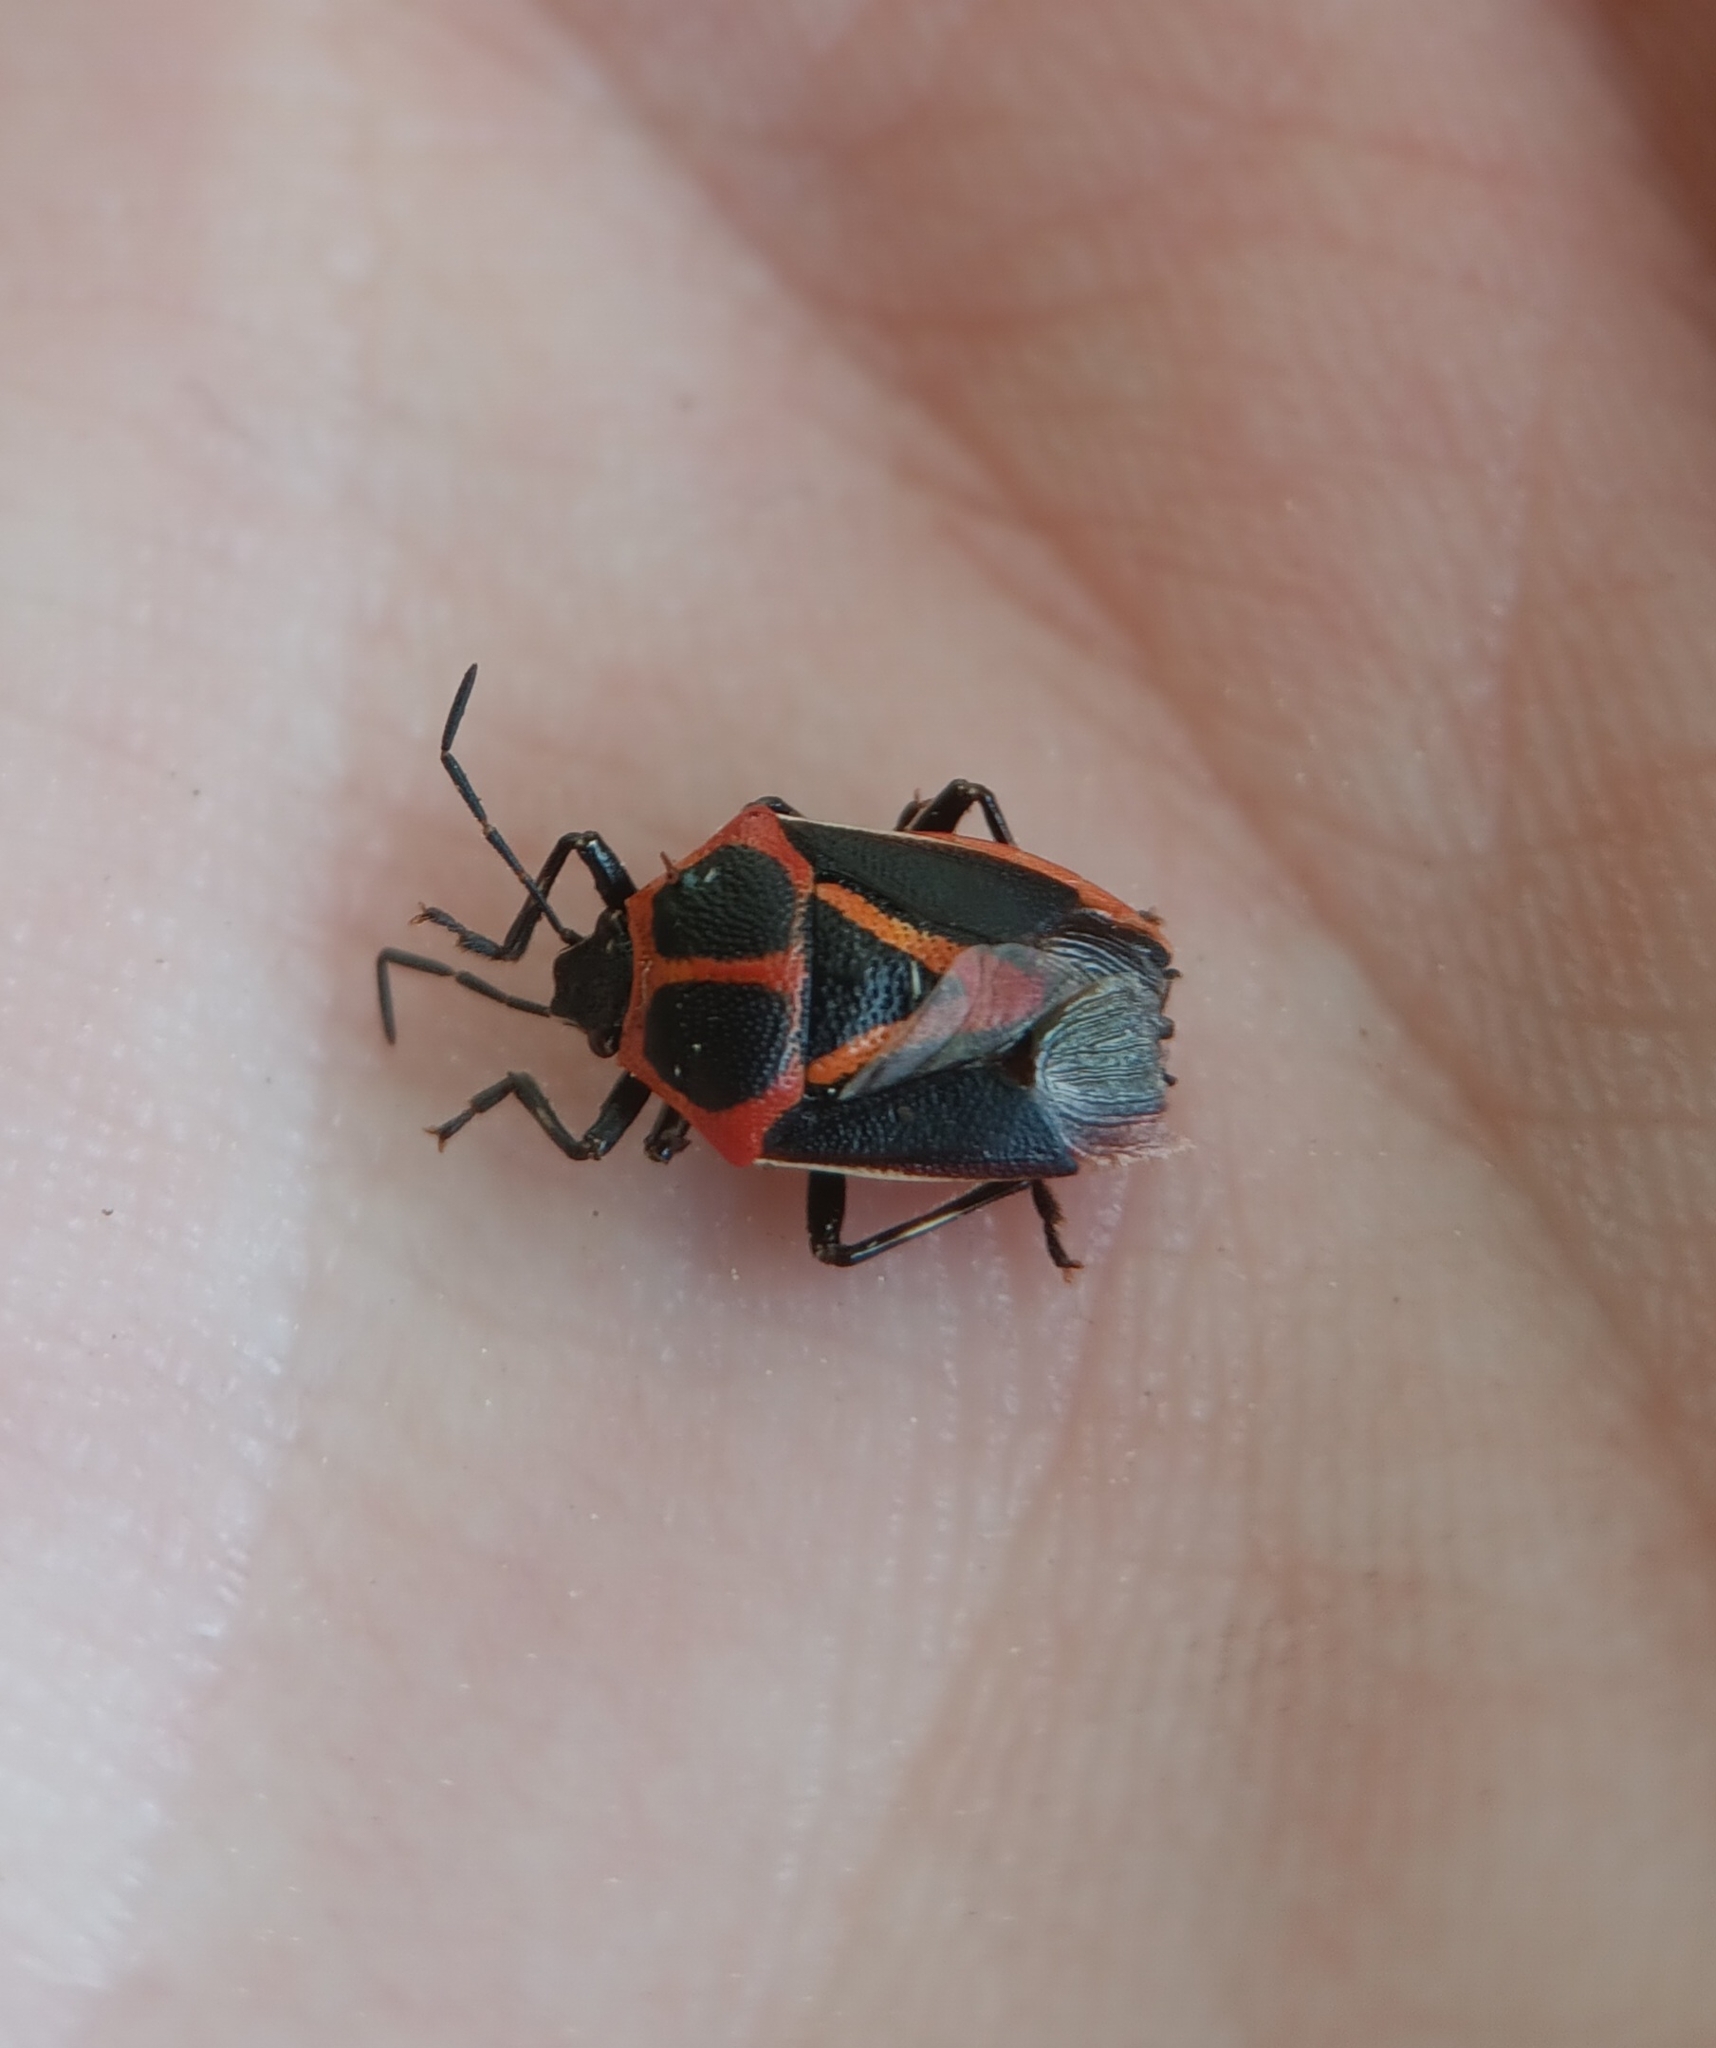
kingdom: Animalia
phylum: Arthropoda
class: Insecta
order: Hemiptera
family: Pentatomidae
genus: Perillus
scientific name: Perillus strigipes
